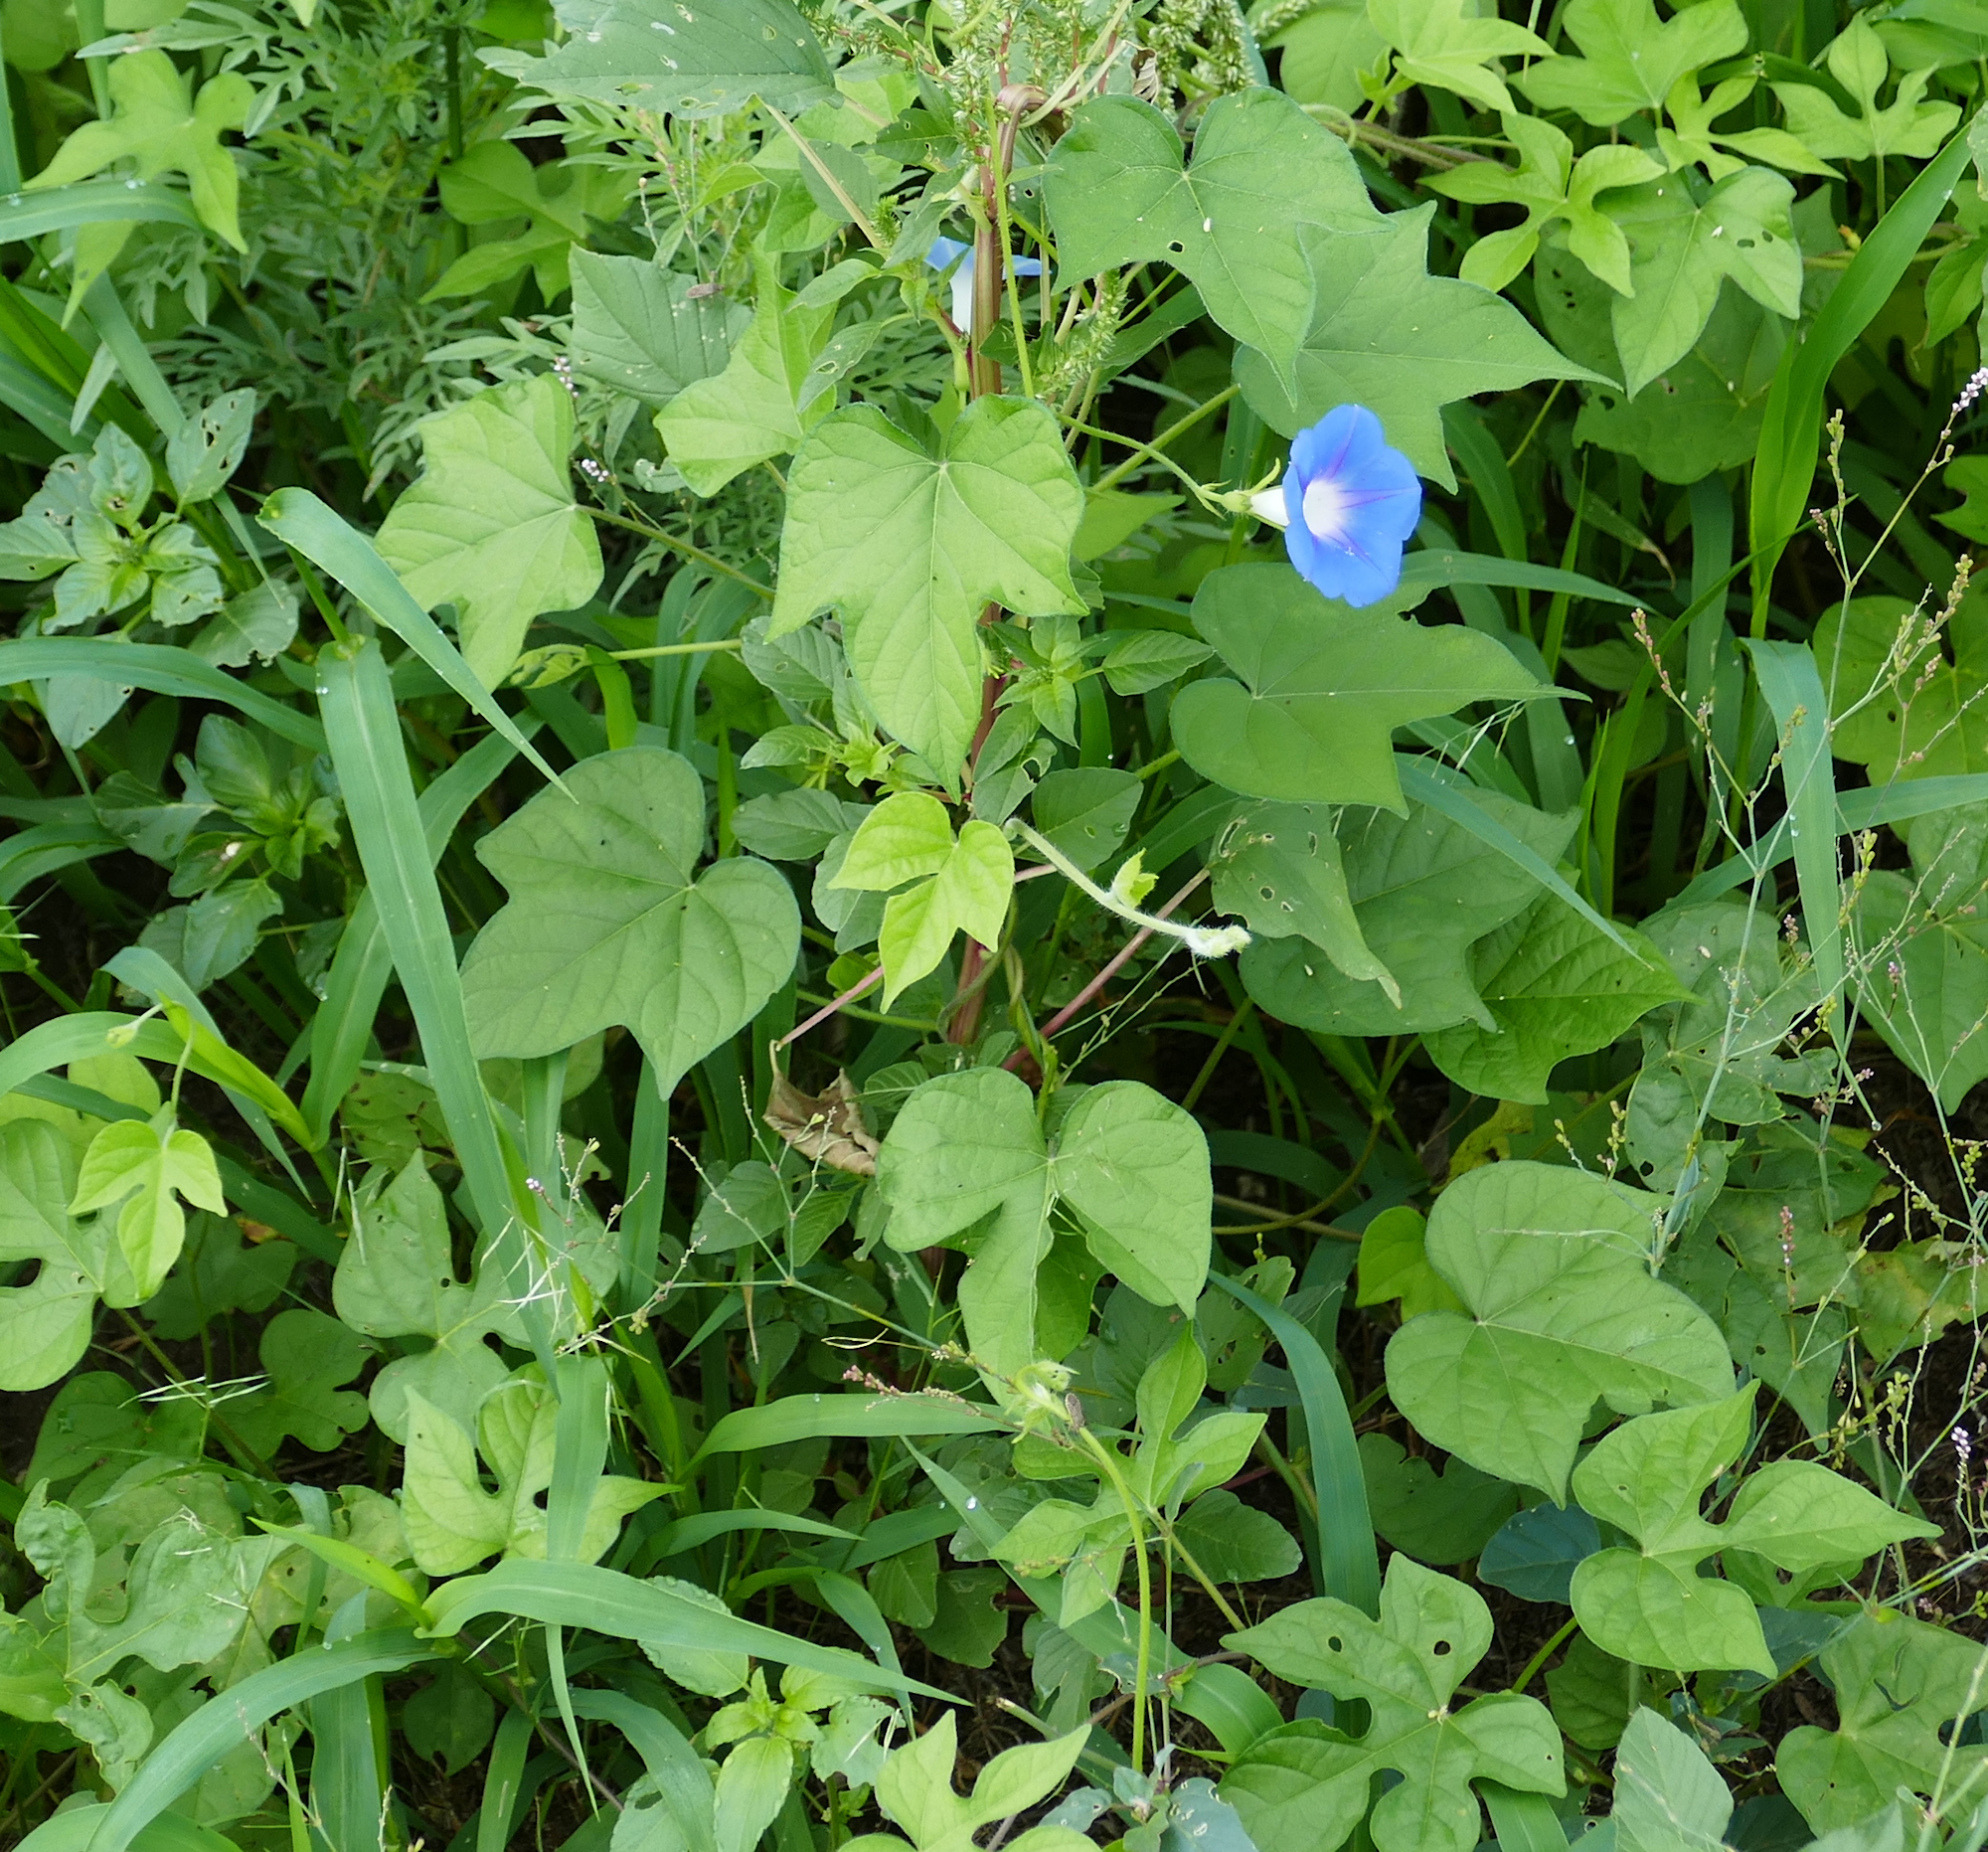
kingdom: Plantae
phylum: Tracheophyta
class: Magnoliopsida
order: Solanales
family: Convolvulaceae
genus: Ipomoea
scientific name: Ipomoea hederacea
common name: Ivy-leaved morning-glory
